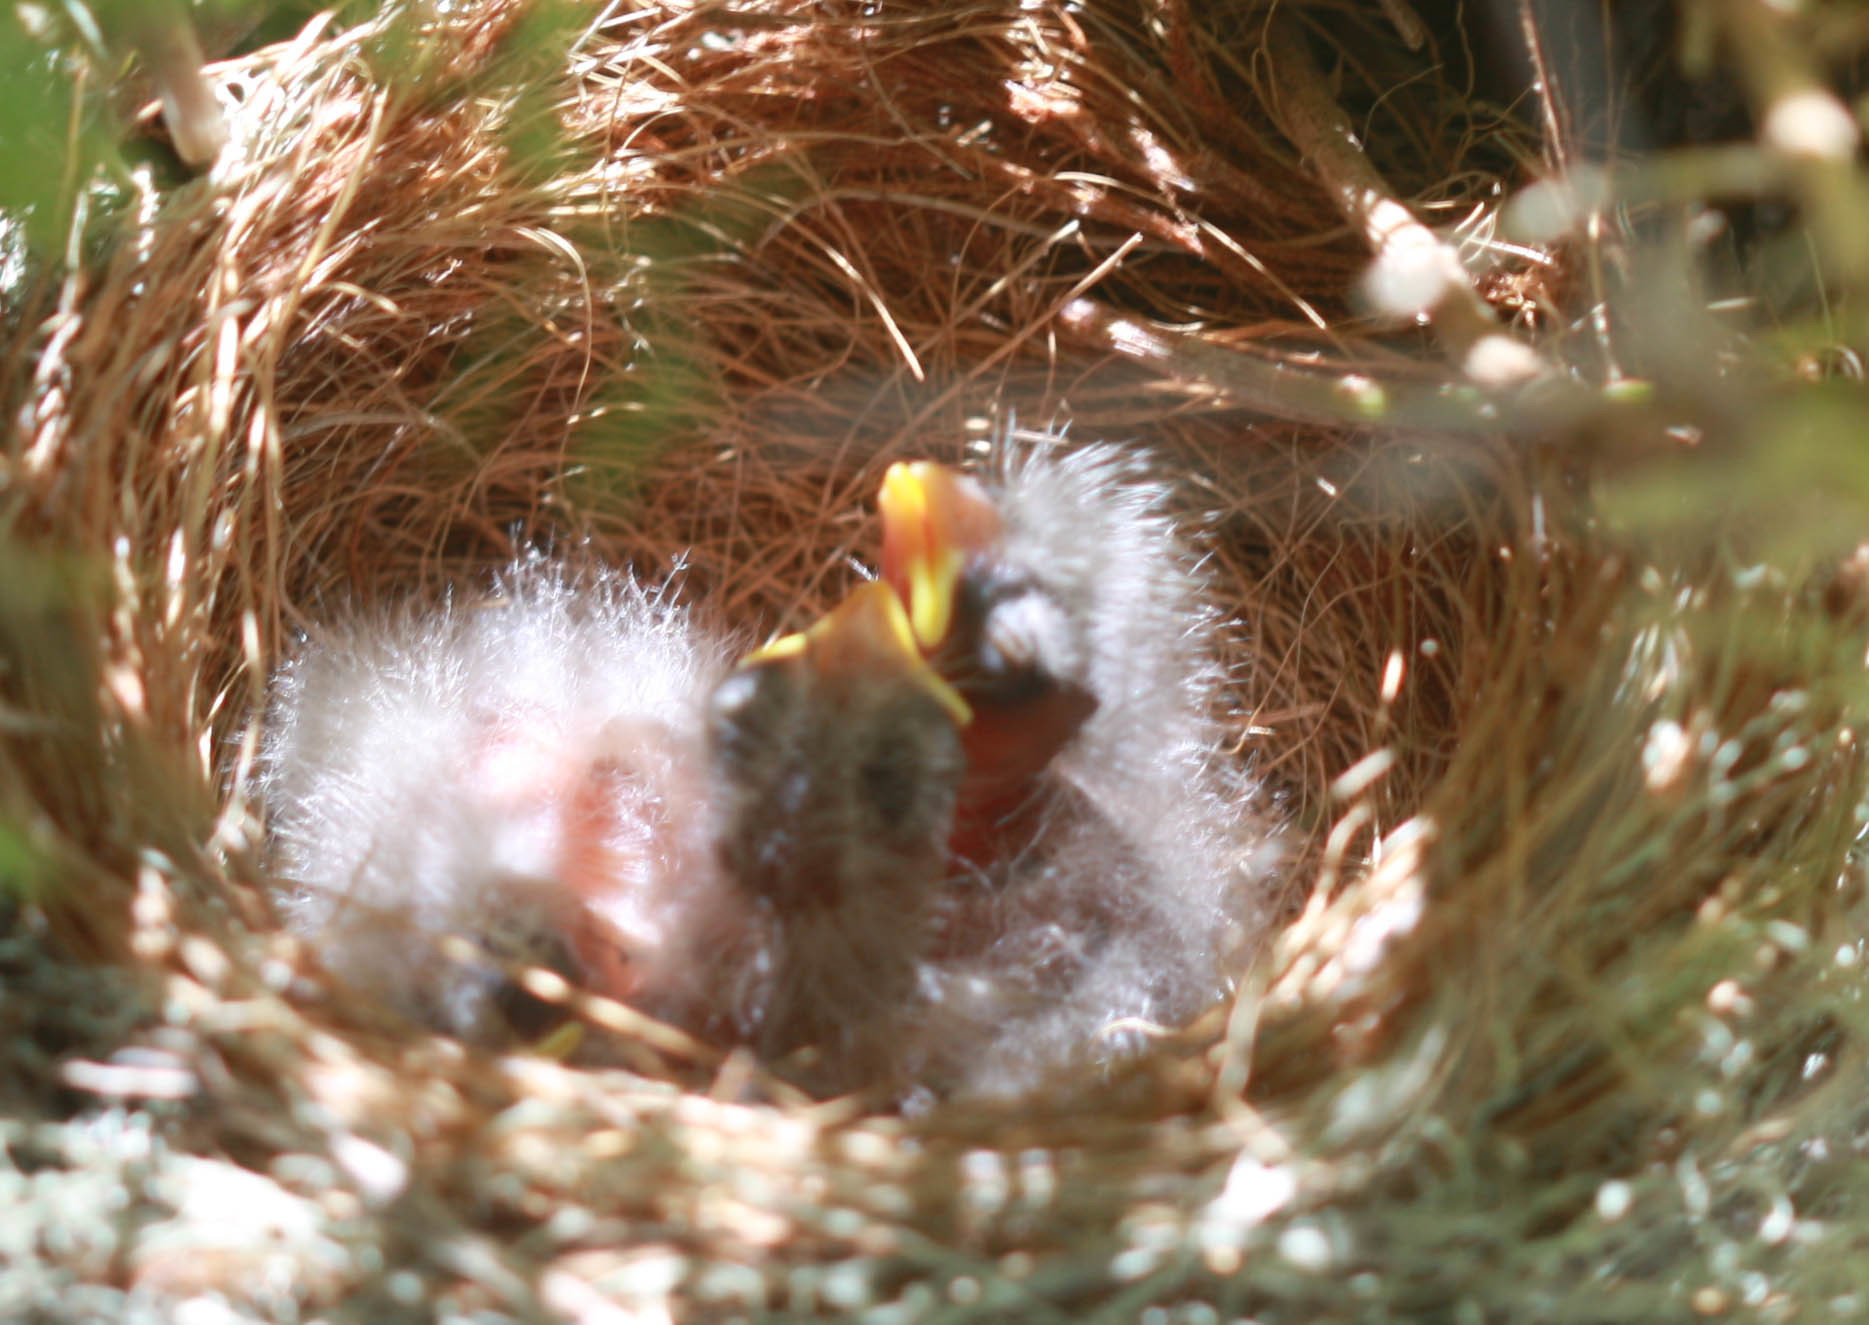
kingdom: Animalia
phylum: Chordata
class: Aves
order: Passeriformes
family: Fringillidae
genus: Haemorhous
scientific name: Haemorhous mexicanus
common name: House finch
